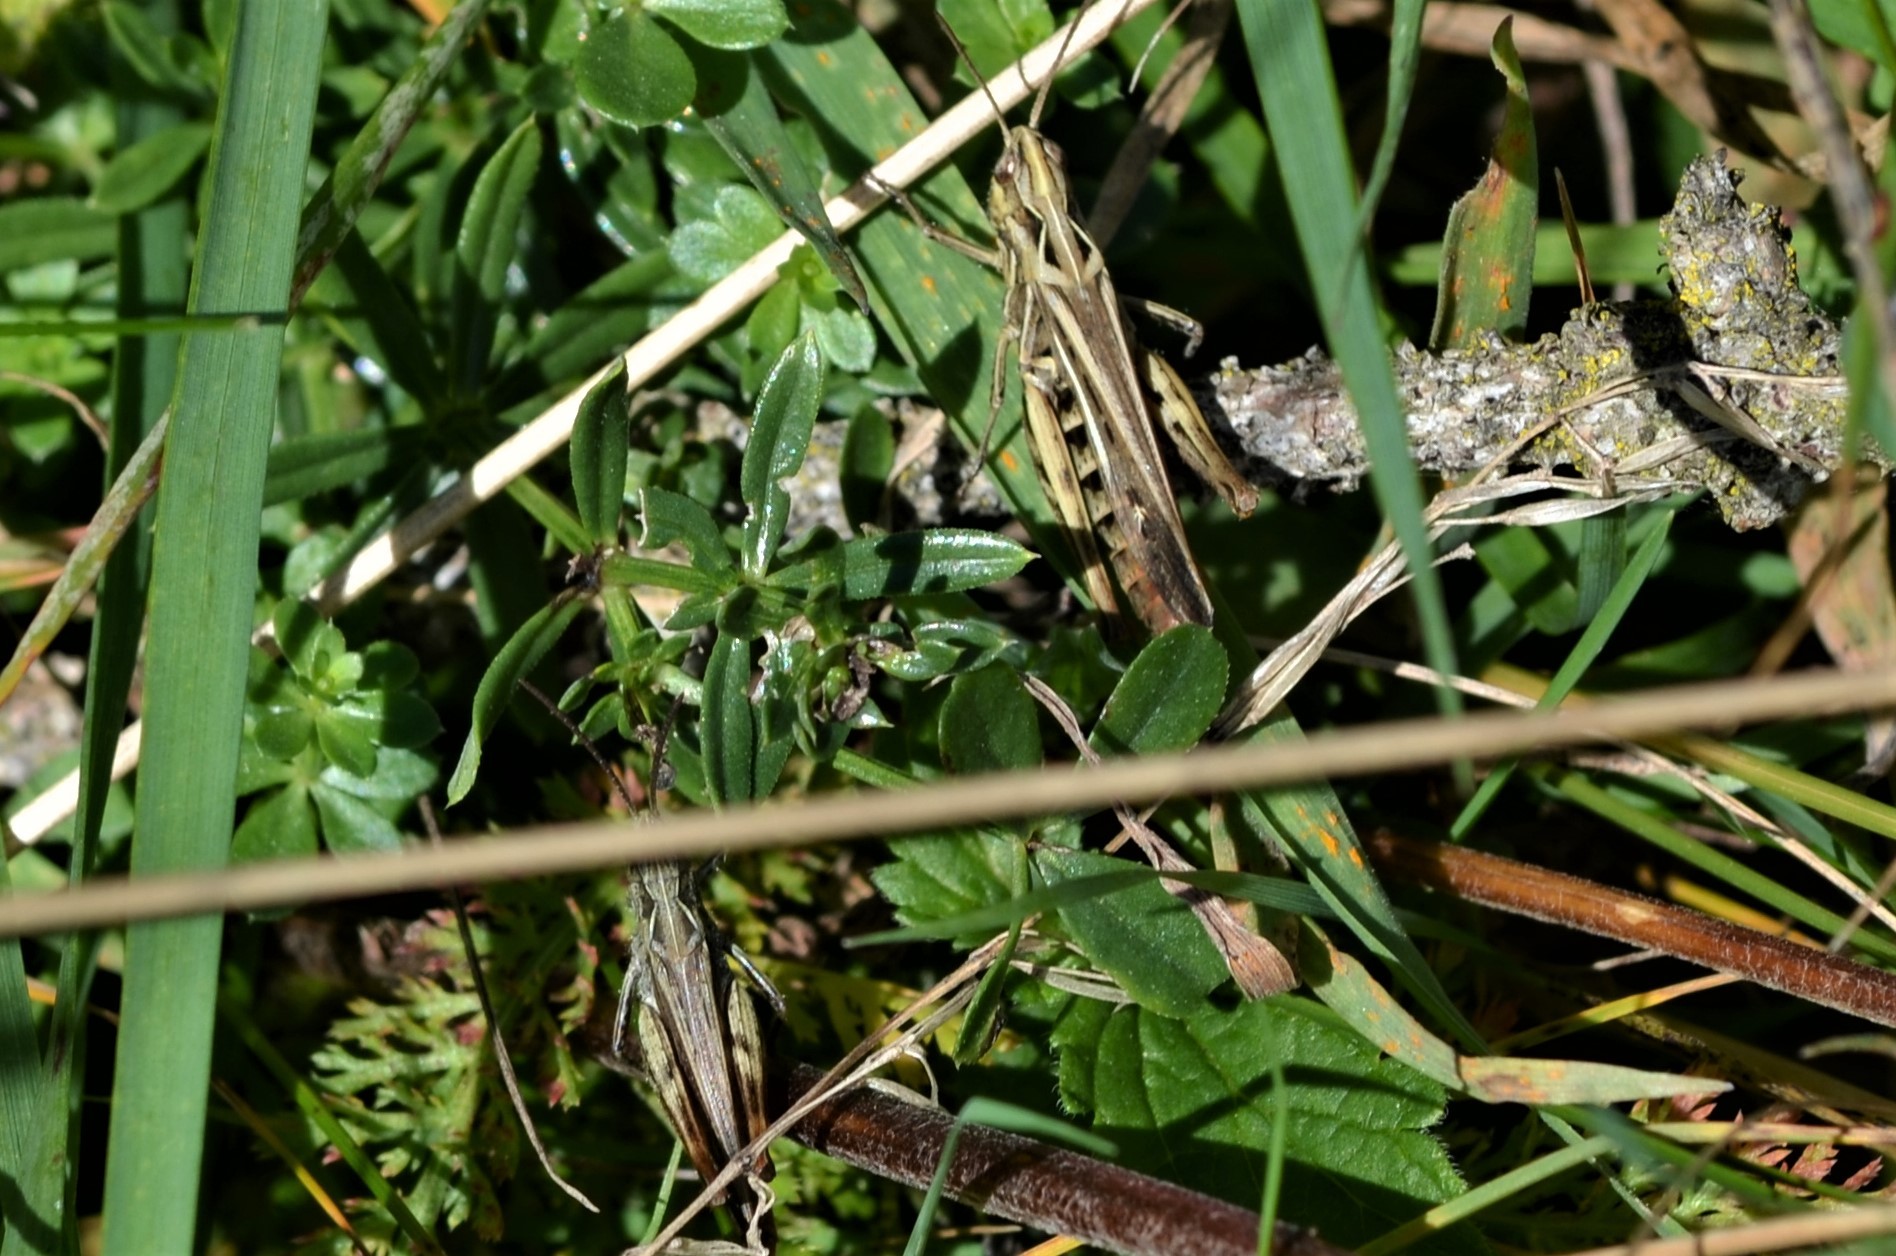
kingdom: Animalia
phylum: Arthropoda
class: Insecta
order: Orthoptera
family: Acrididae
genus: Chorthippus
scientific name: Chorthippus biguttulus
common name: Bow-winged grasshopper
